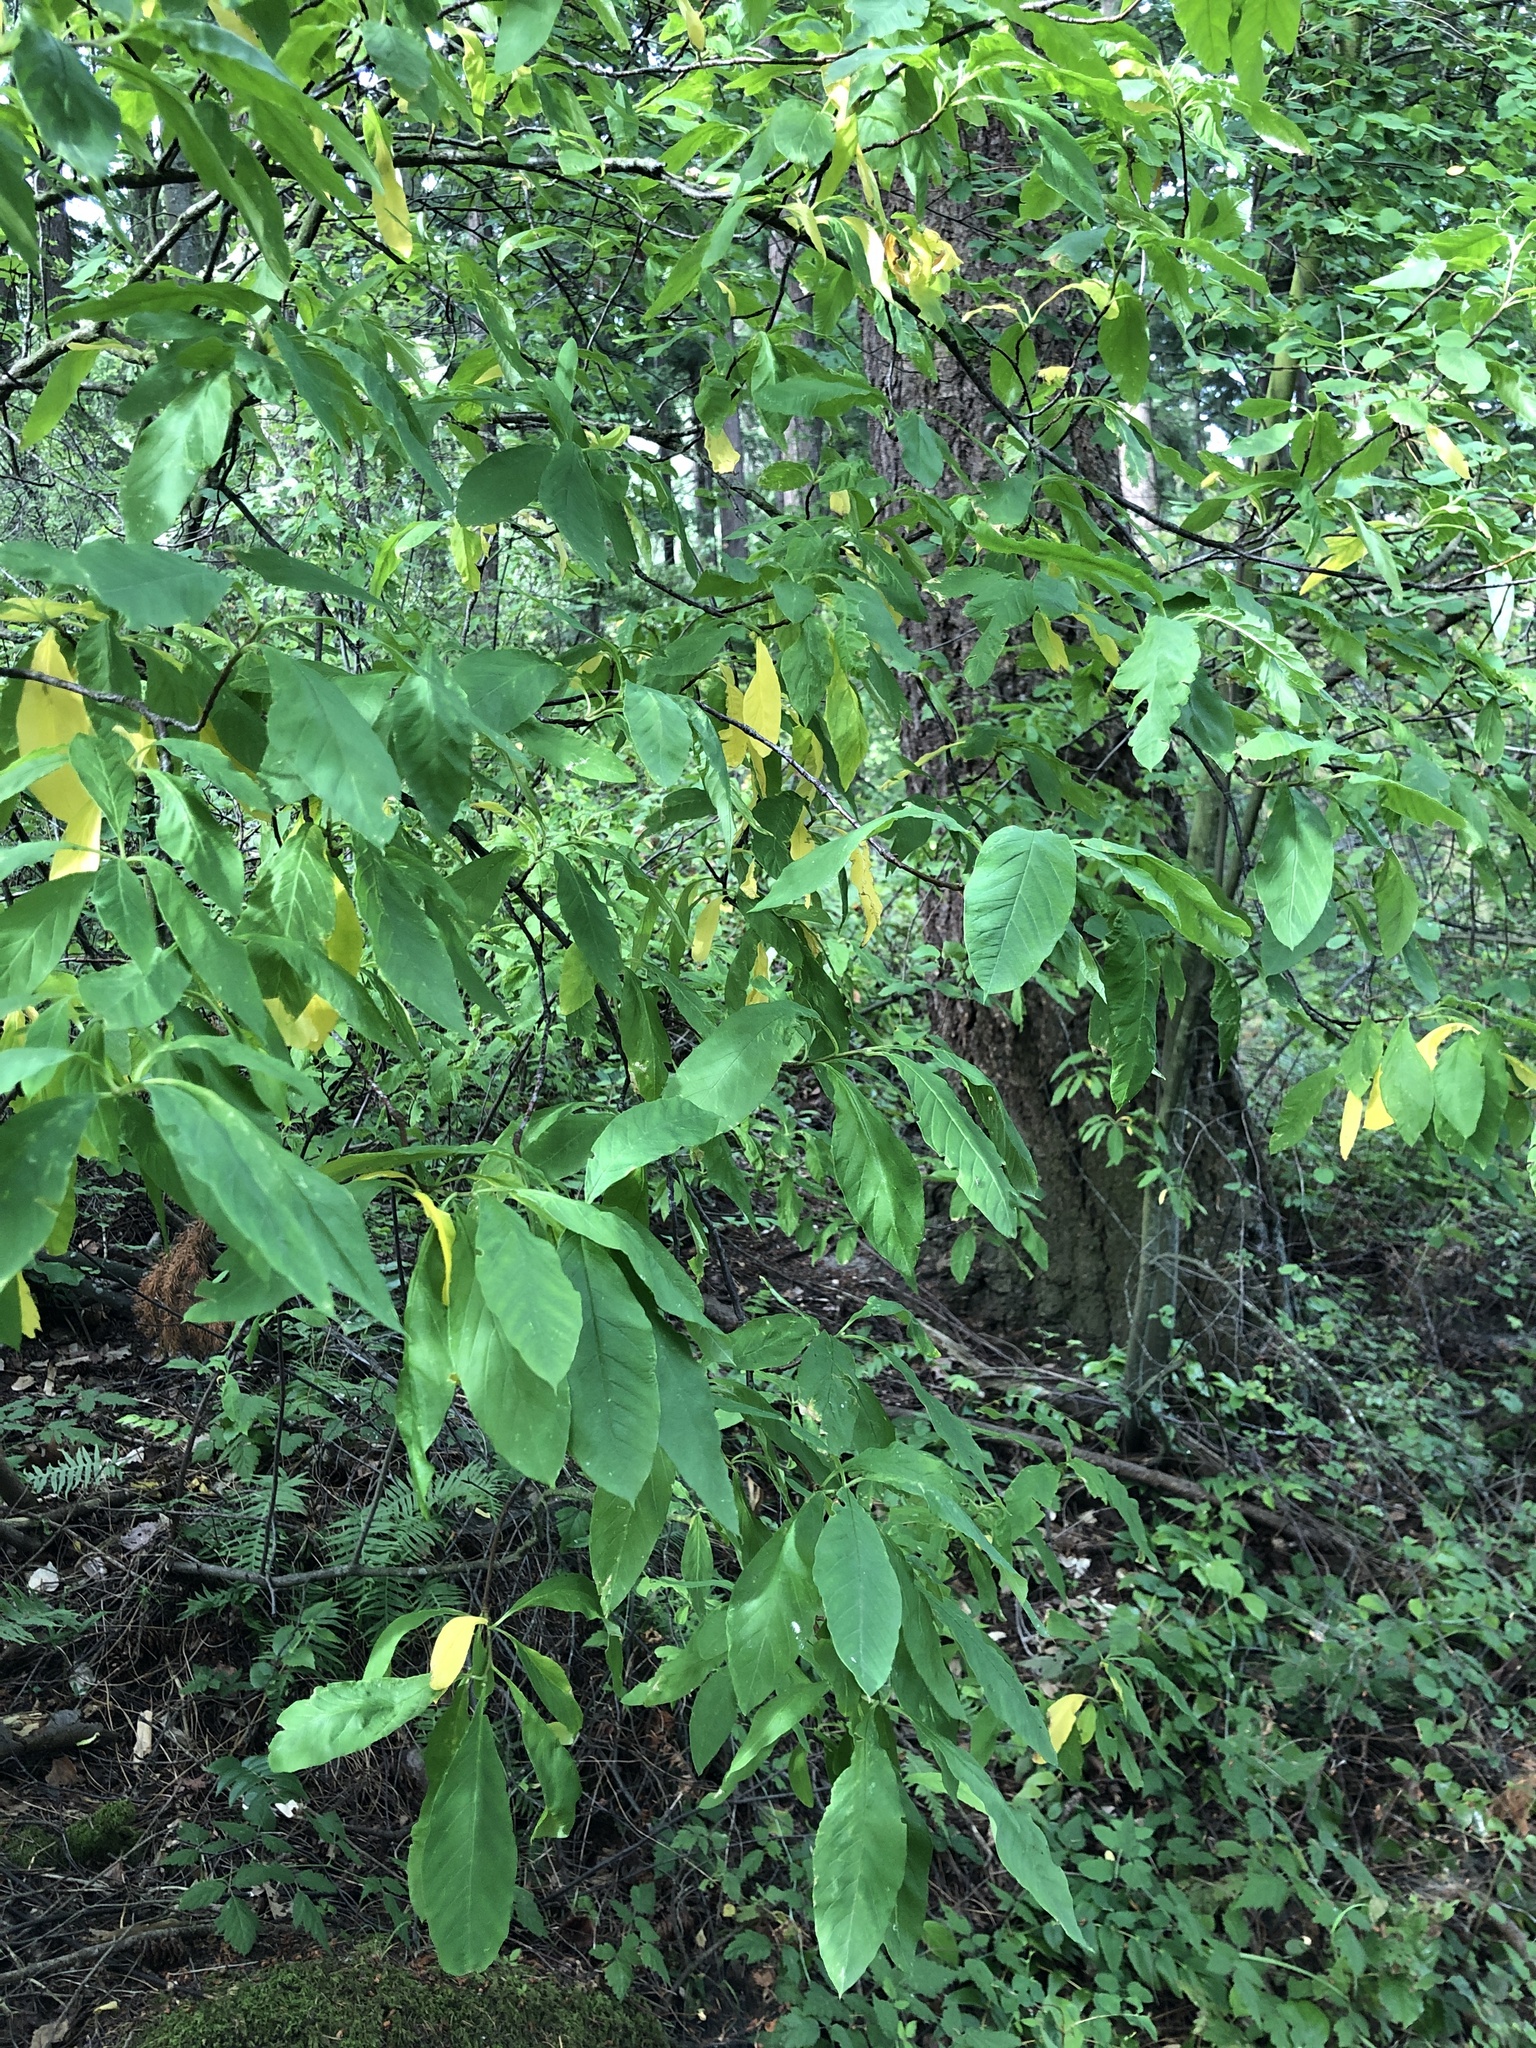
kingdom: Plantae
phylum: Tracheophyta
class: Magnoliopsida
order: Rosales
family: Rosaceae
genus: Oemleria
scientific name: Oemleria cerasiformis
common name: Osoberry
